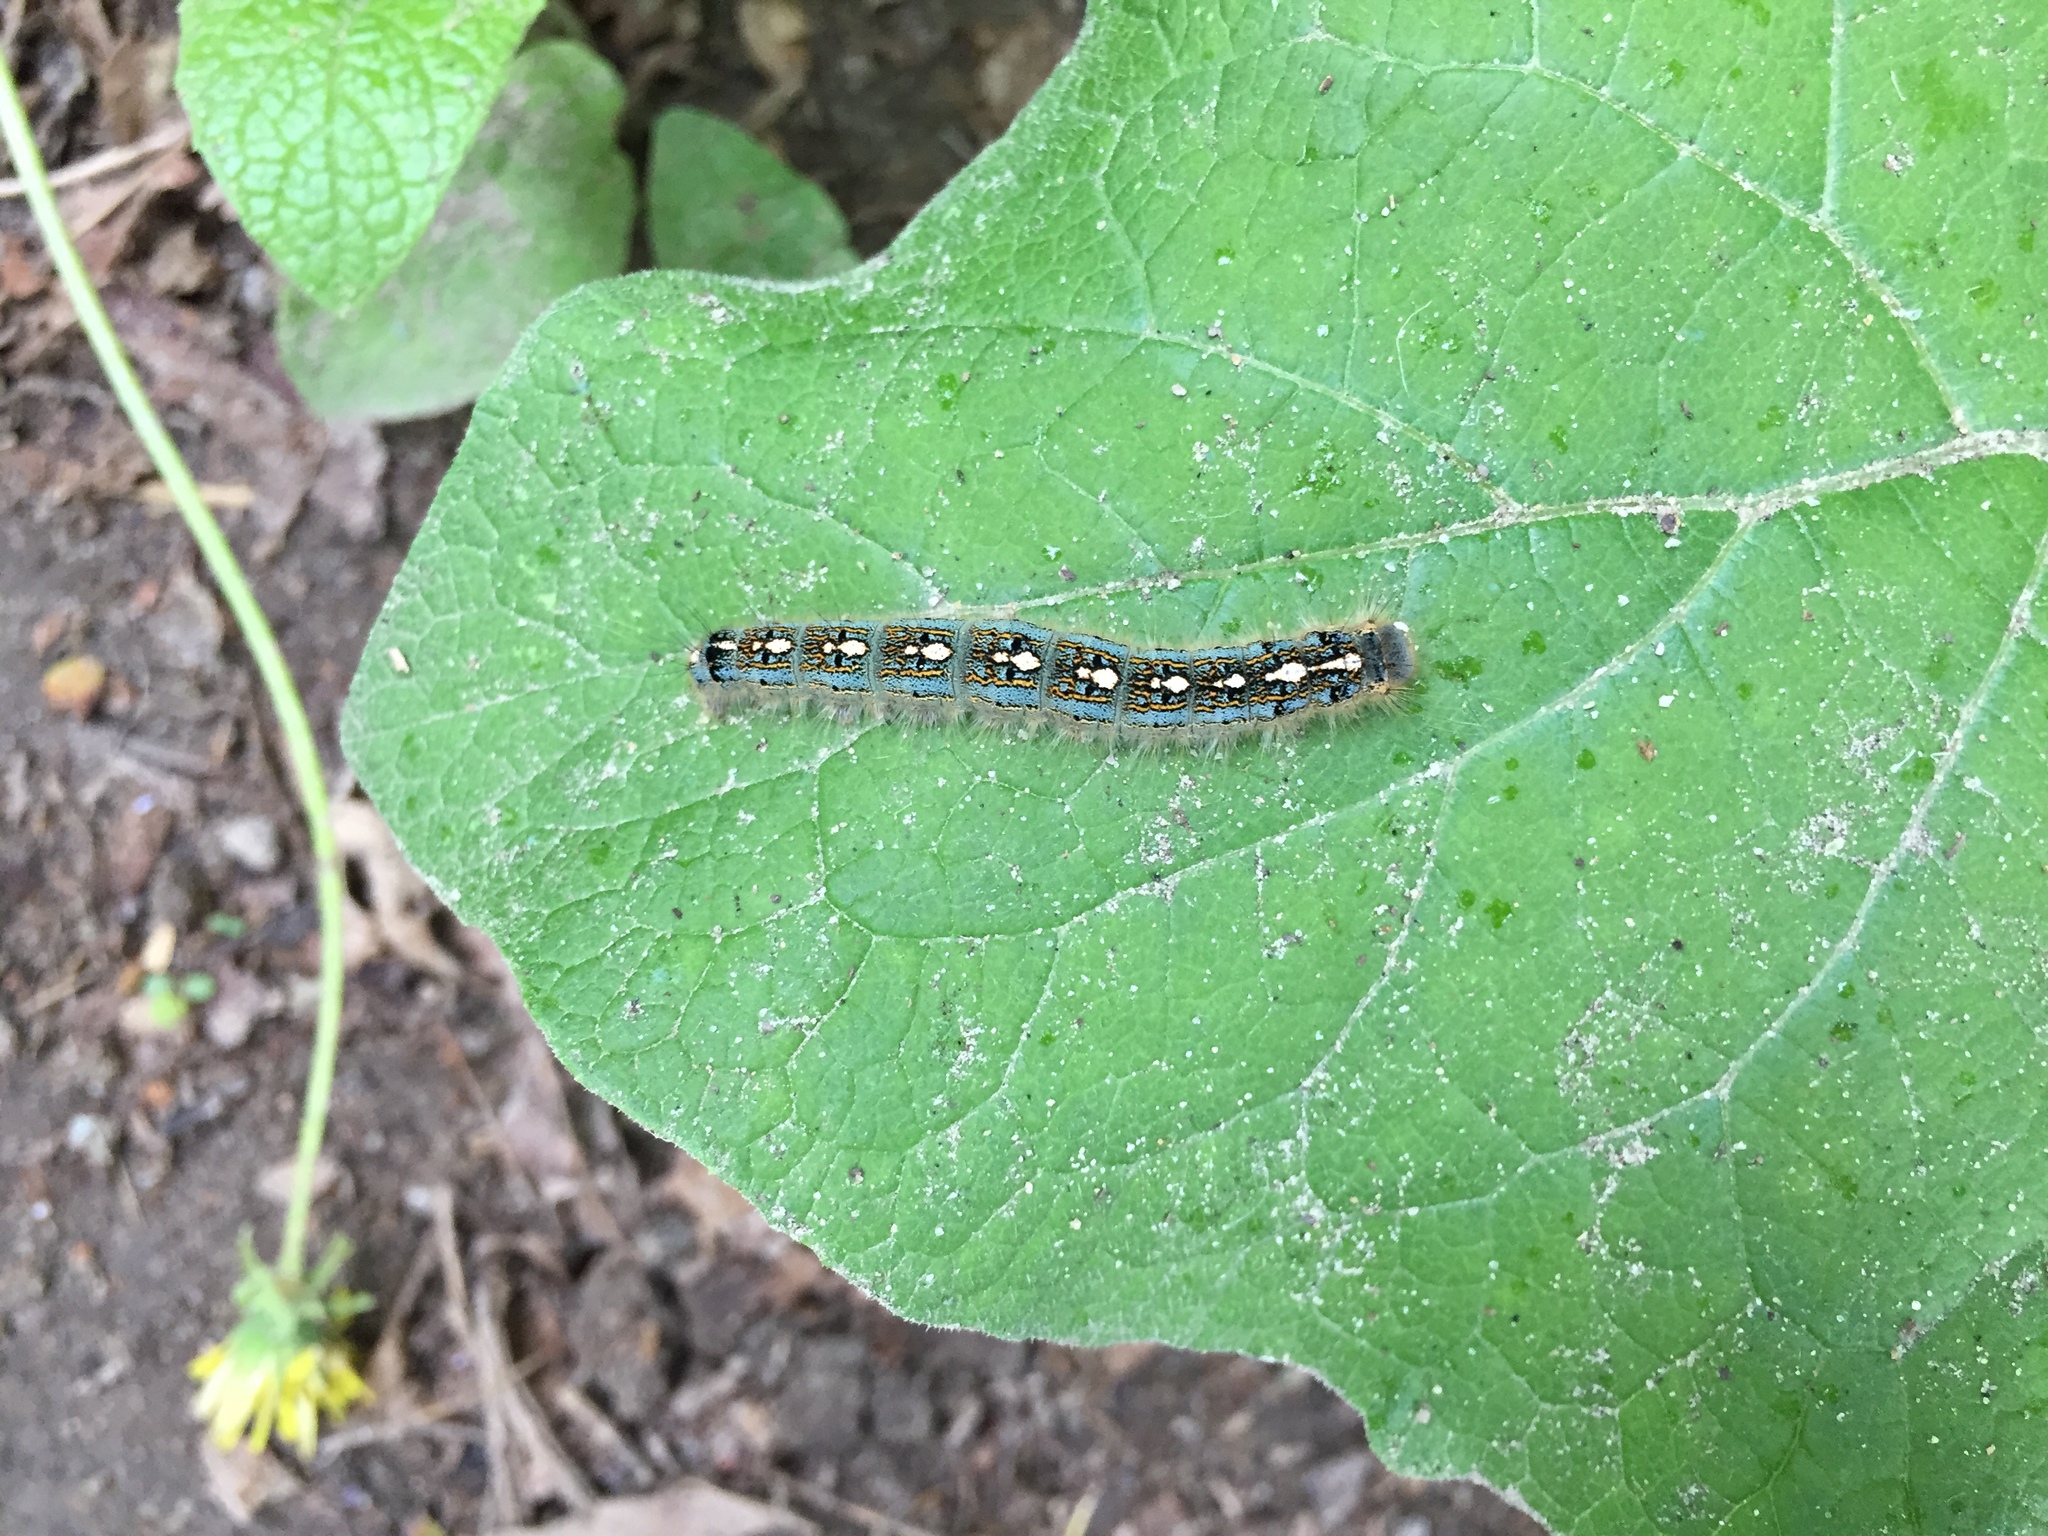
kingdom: Animalia
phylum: Arthropoda
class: Insecta
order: Lepidoptera
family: Lasiocampidae
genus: Malacosoma
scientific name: Malacosoma disstria
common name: Forest tent caterpillar
